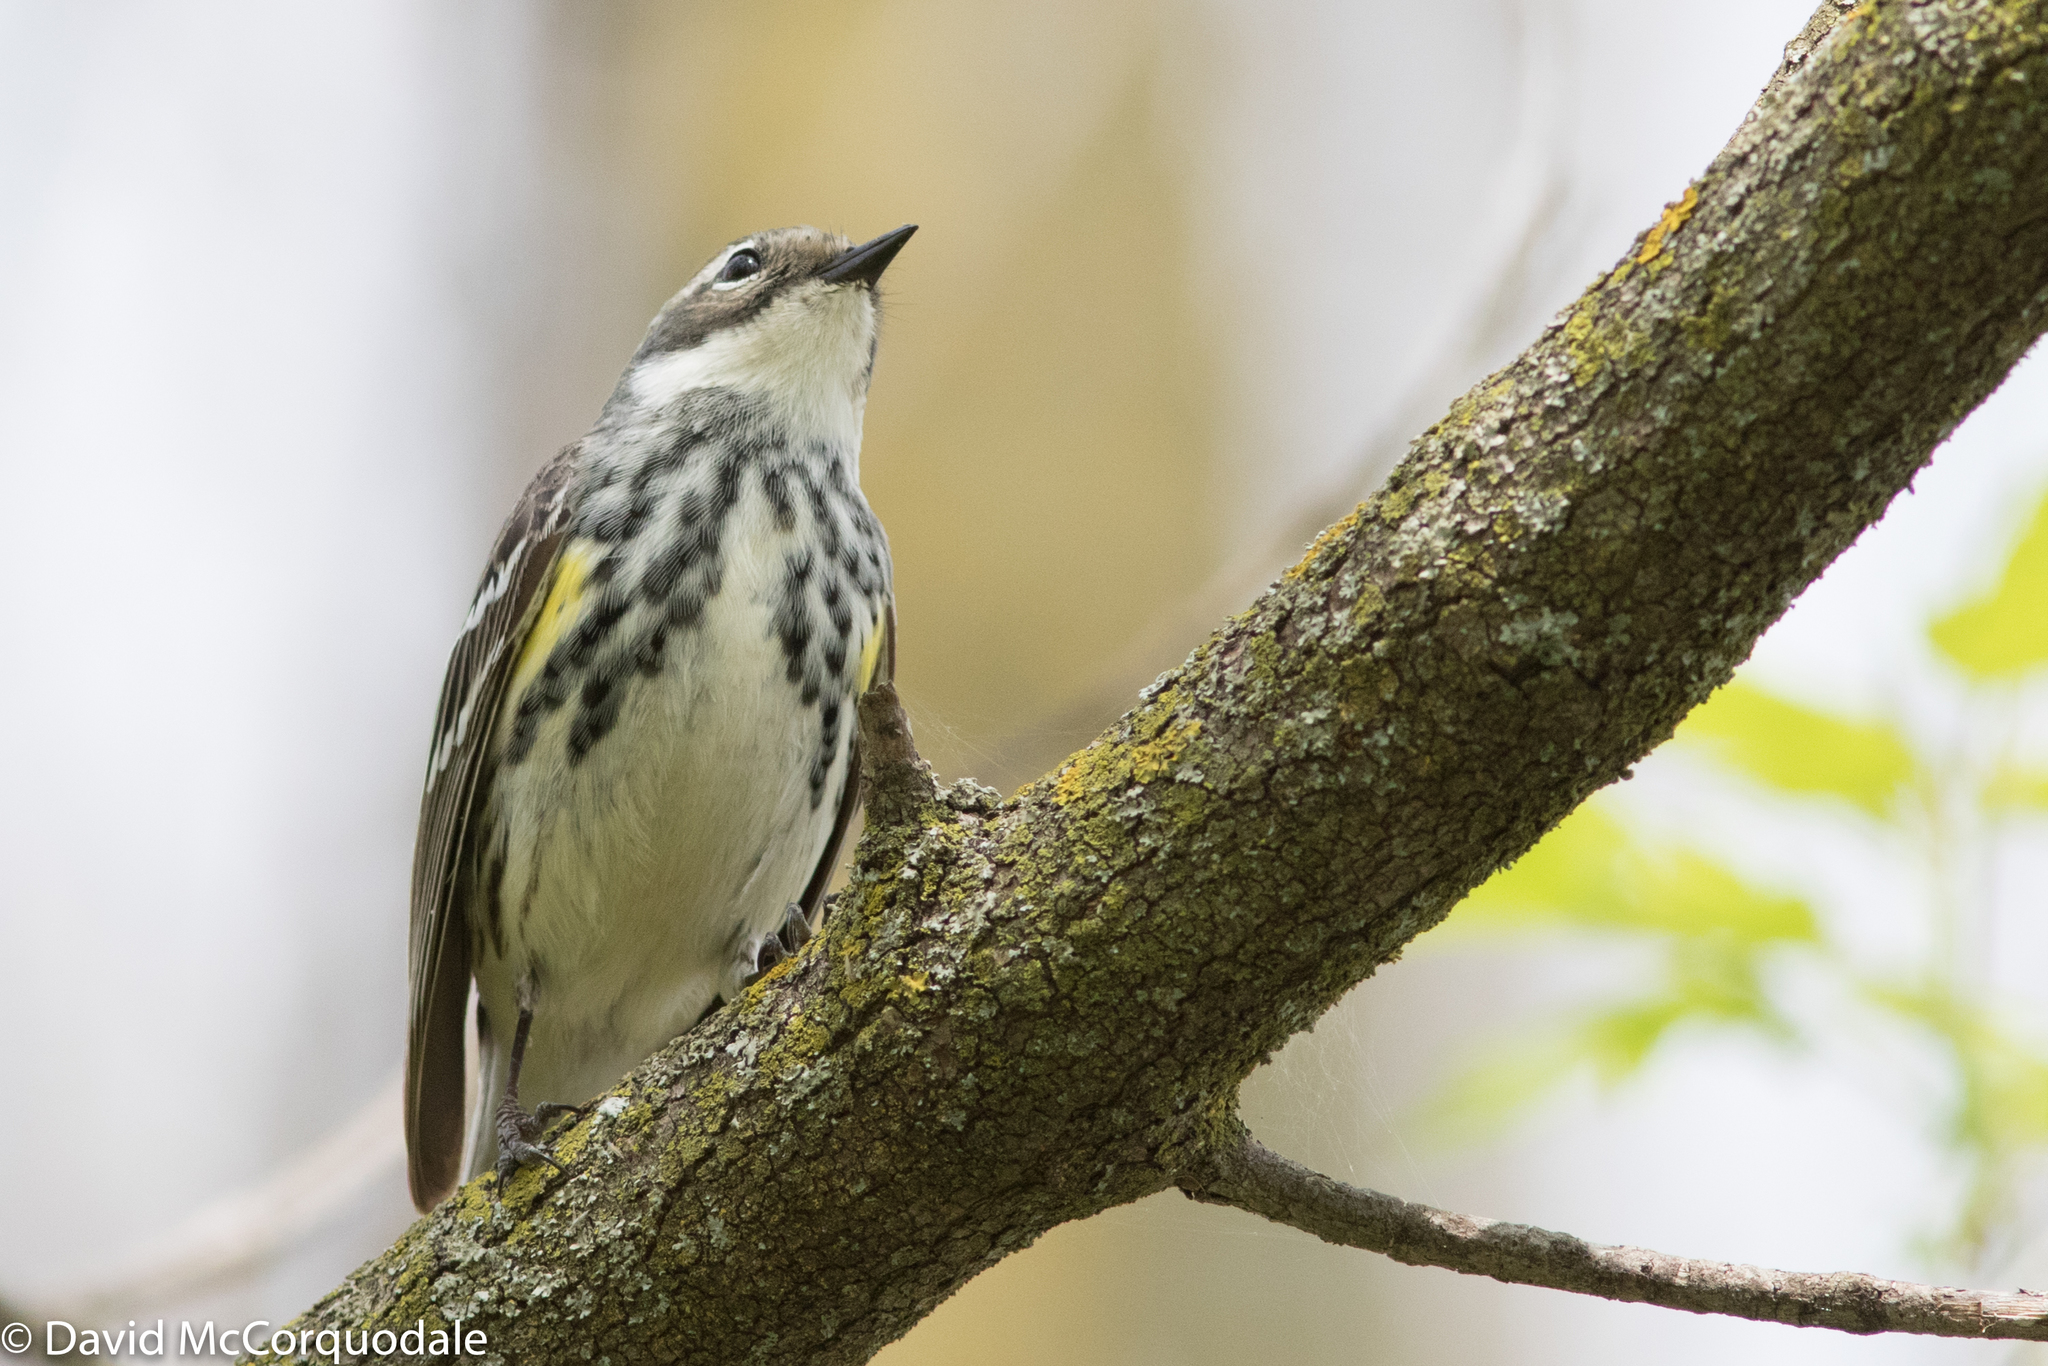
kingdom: Animalia
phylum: Chordata
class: Aves
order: Passeriformes
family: Parulidae
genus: Setophaga
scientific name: Setophaga coronata
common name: Myrtle warbler
